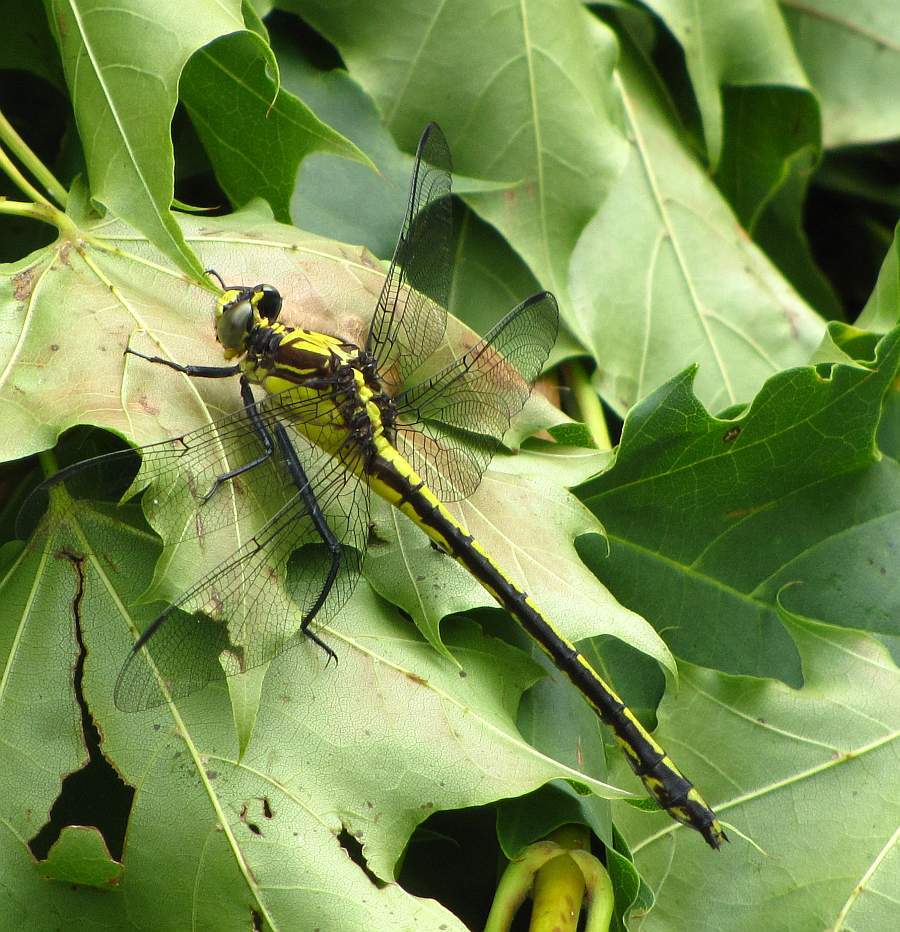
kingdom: Animalia
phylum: Arthropoda
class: Insecta
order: Odonata
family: Gomphidae
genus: Dromogomphus
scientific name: Dromogomphus spinosus
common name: Black-shouldered spinyleg
